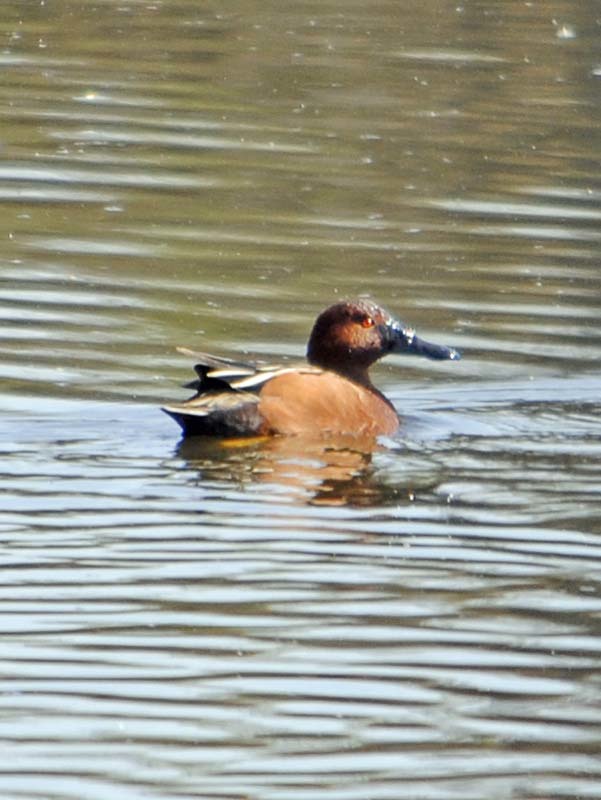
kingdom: Animalia
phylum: Chordata
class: Aves
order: Anseriformes
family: Anatidae
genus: Spatula
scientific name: Spatula cyanoptera
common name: Cinnamon teal
